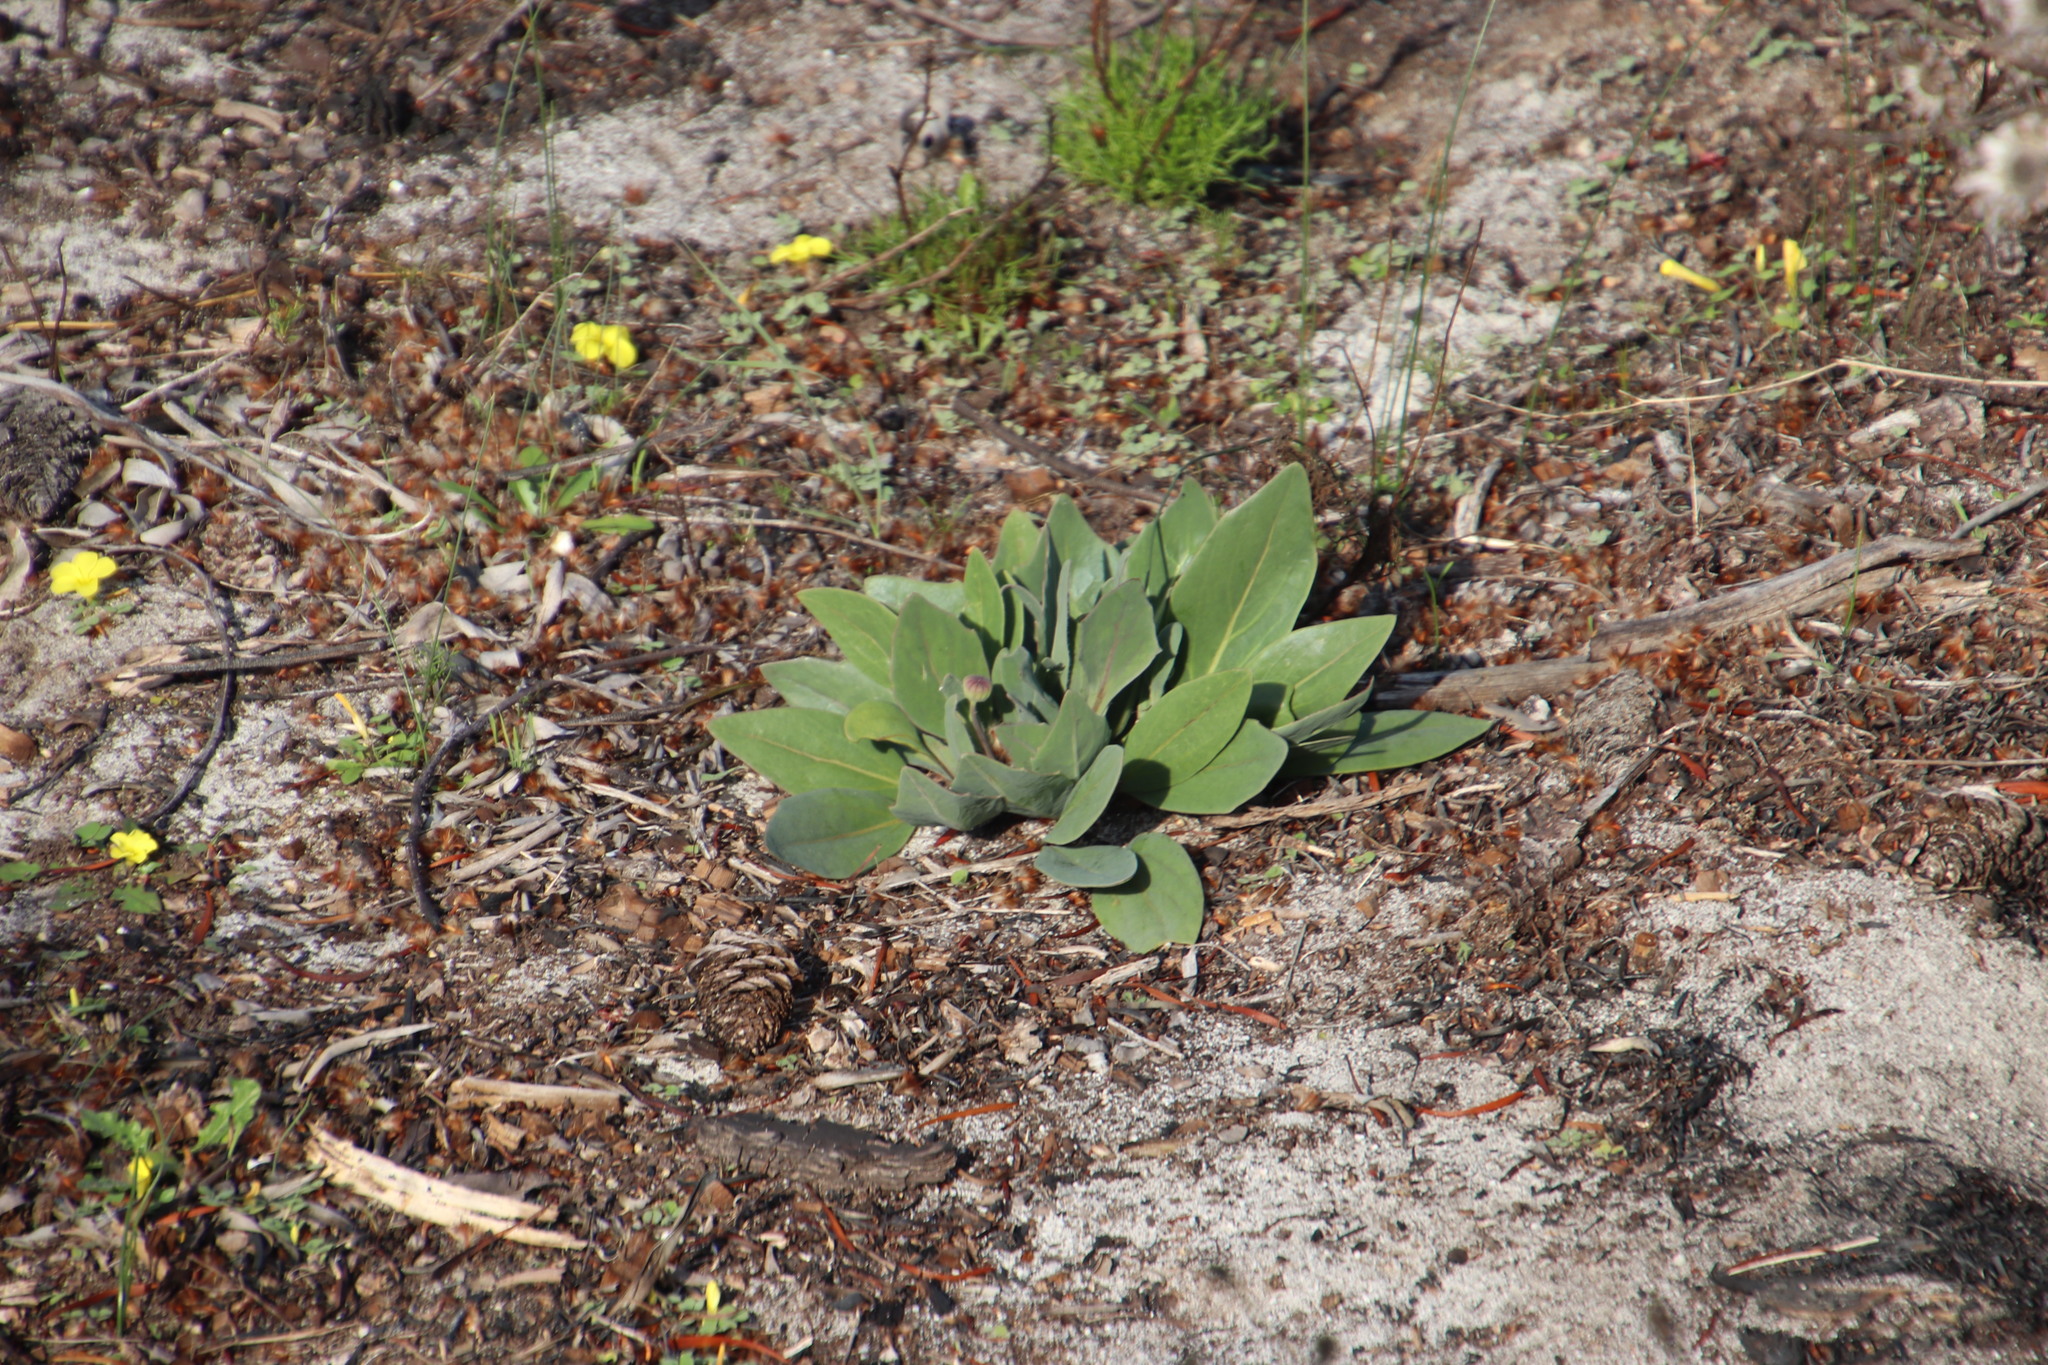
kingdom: Plantae
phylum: Tracheophyta
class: Magnoliopsida
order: Asterales
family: Asteraceae
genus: Othonna
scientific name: Othonna bulbosa
